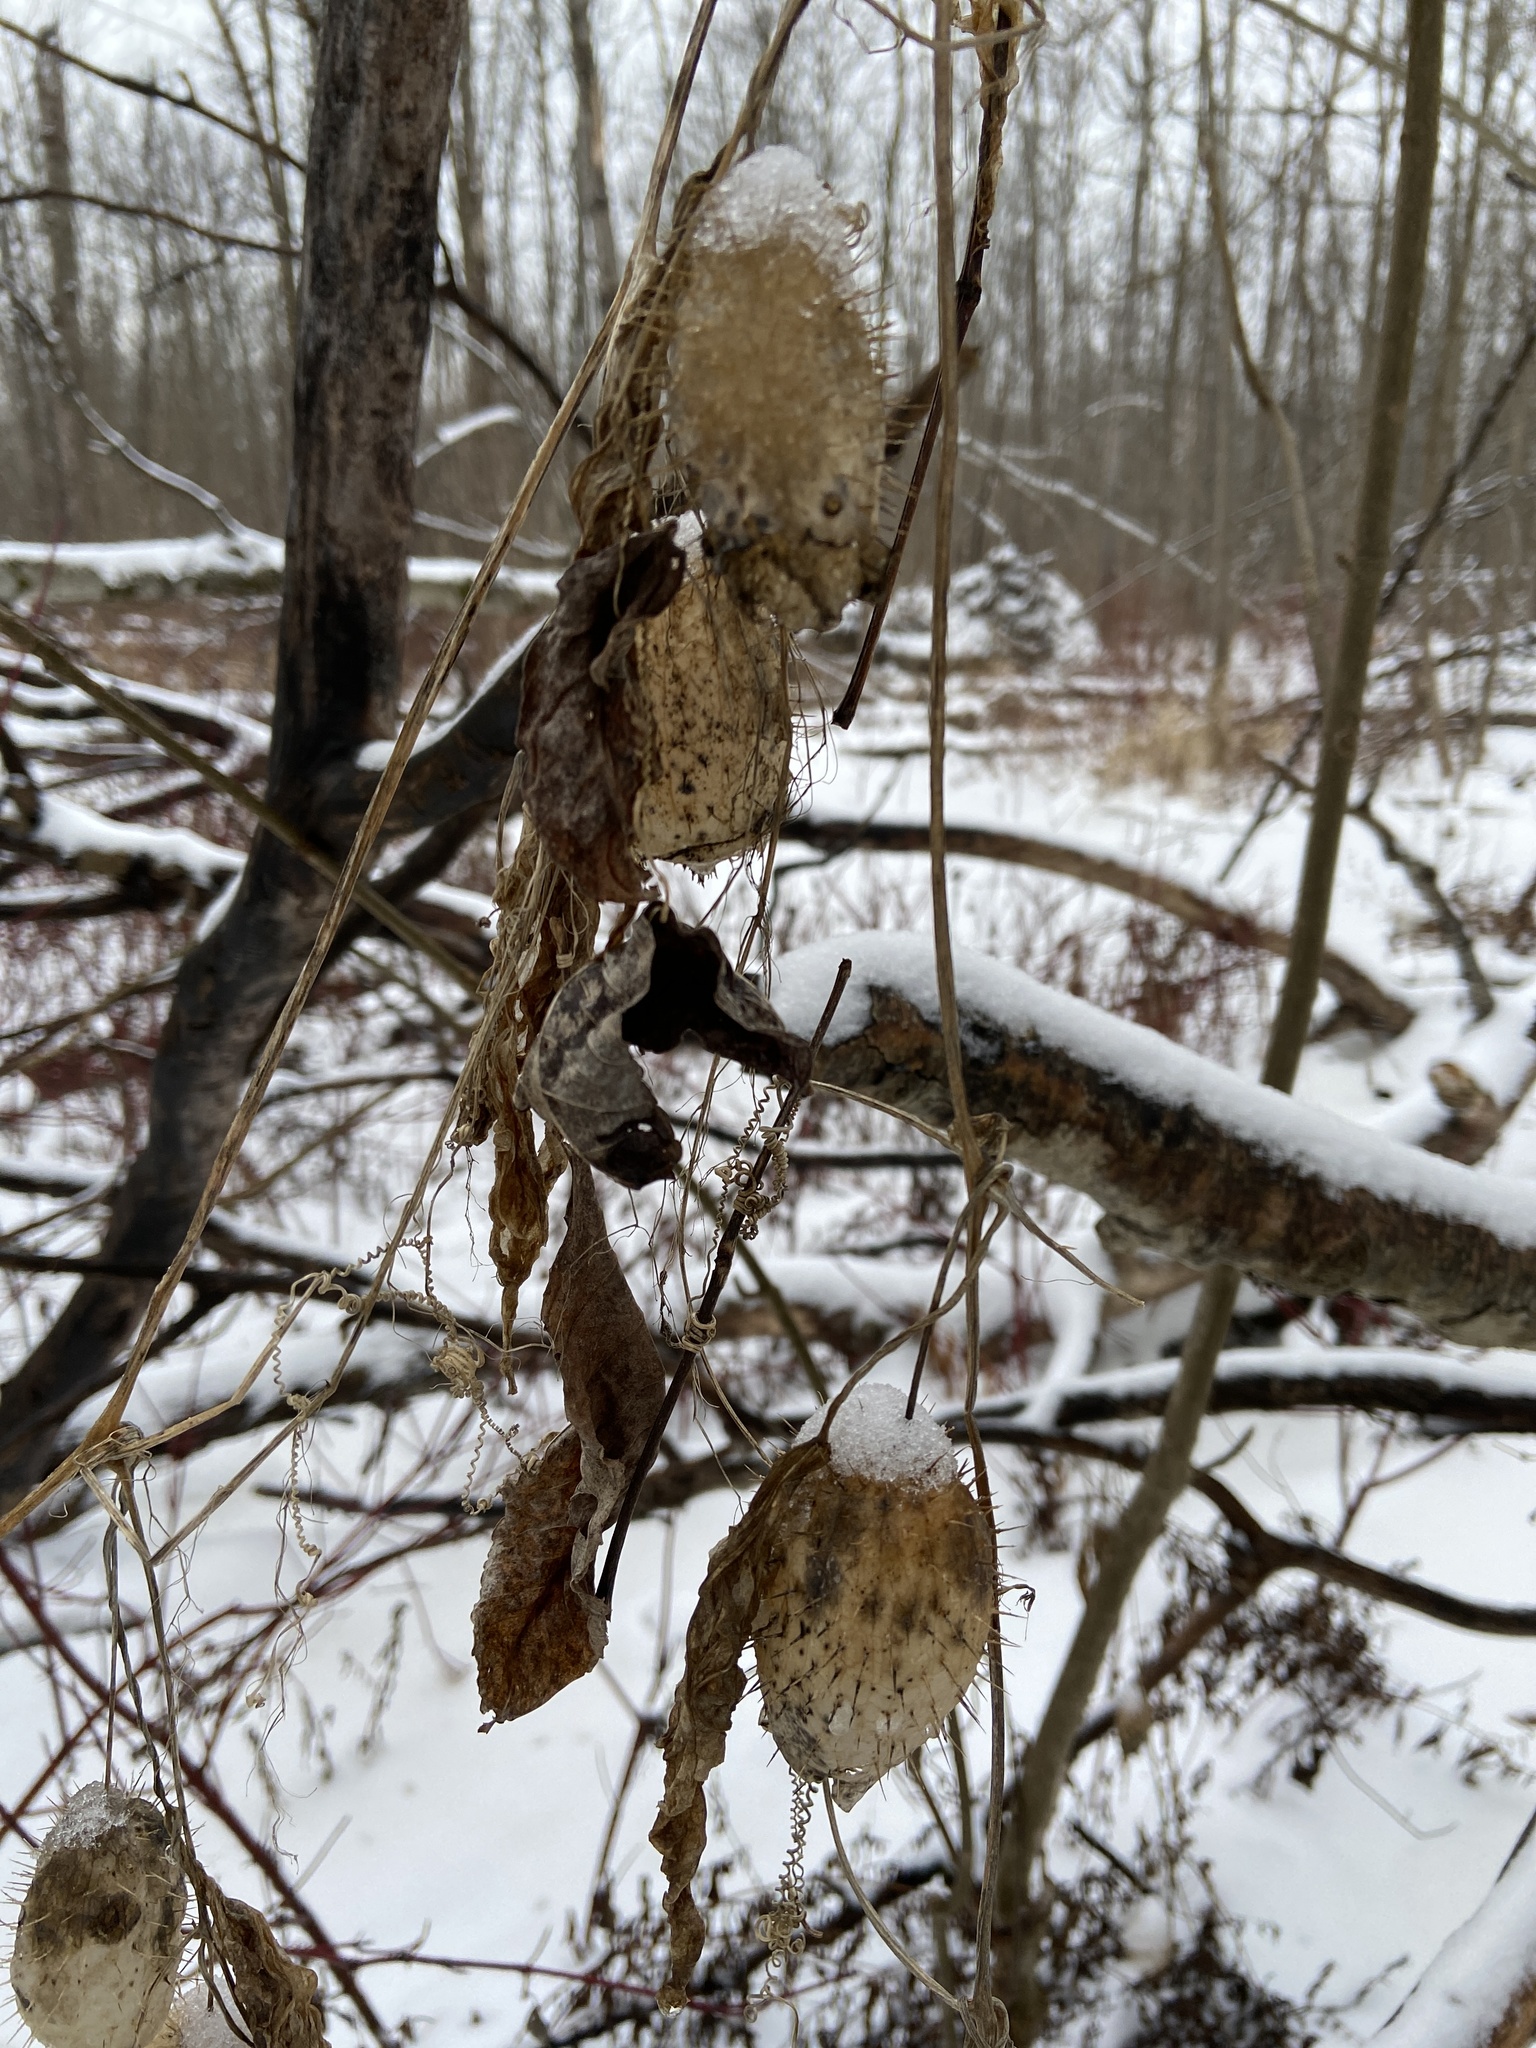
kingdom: Plantae
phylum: Tracheophyta
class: Magnoliopsida
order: Cucurbitales
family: Cucurbitaceae
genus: Echinocystis
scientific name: Echinocystis lobata
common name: Wild cucumber
